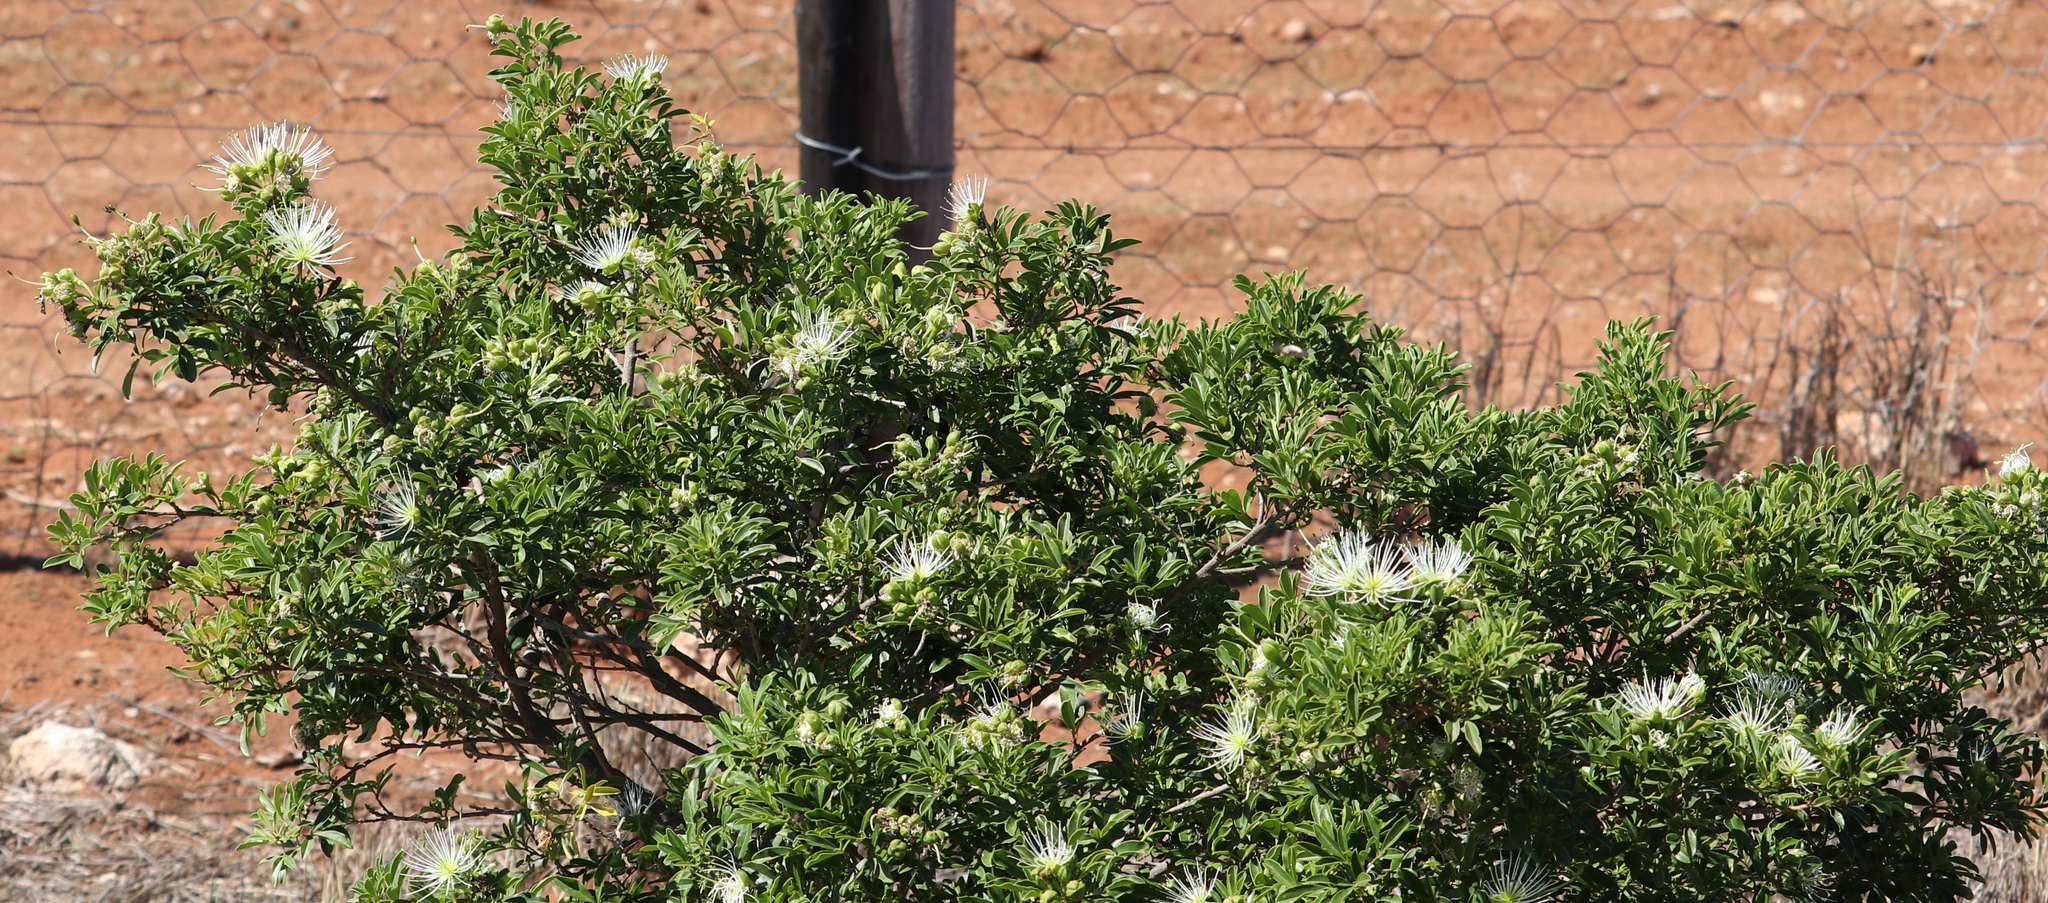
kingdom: Plantae
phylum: Tracheophyta
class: Magnoliopsida
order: Brassicales
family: Capparaceae
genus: Maerua
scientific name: Maerua cafra
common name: Bush maerua
